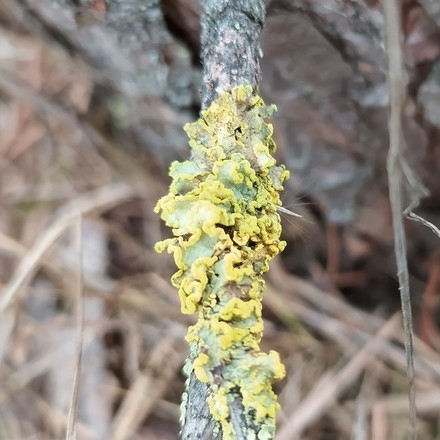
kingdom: Fungi
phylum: Ascomycota
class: Lecanoromycetes
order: Lecanorales
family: Parmeliaceae
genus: Vulpicida
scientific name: Vulpicida pinastri
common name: Powdered sunshine lichen
